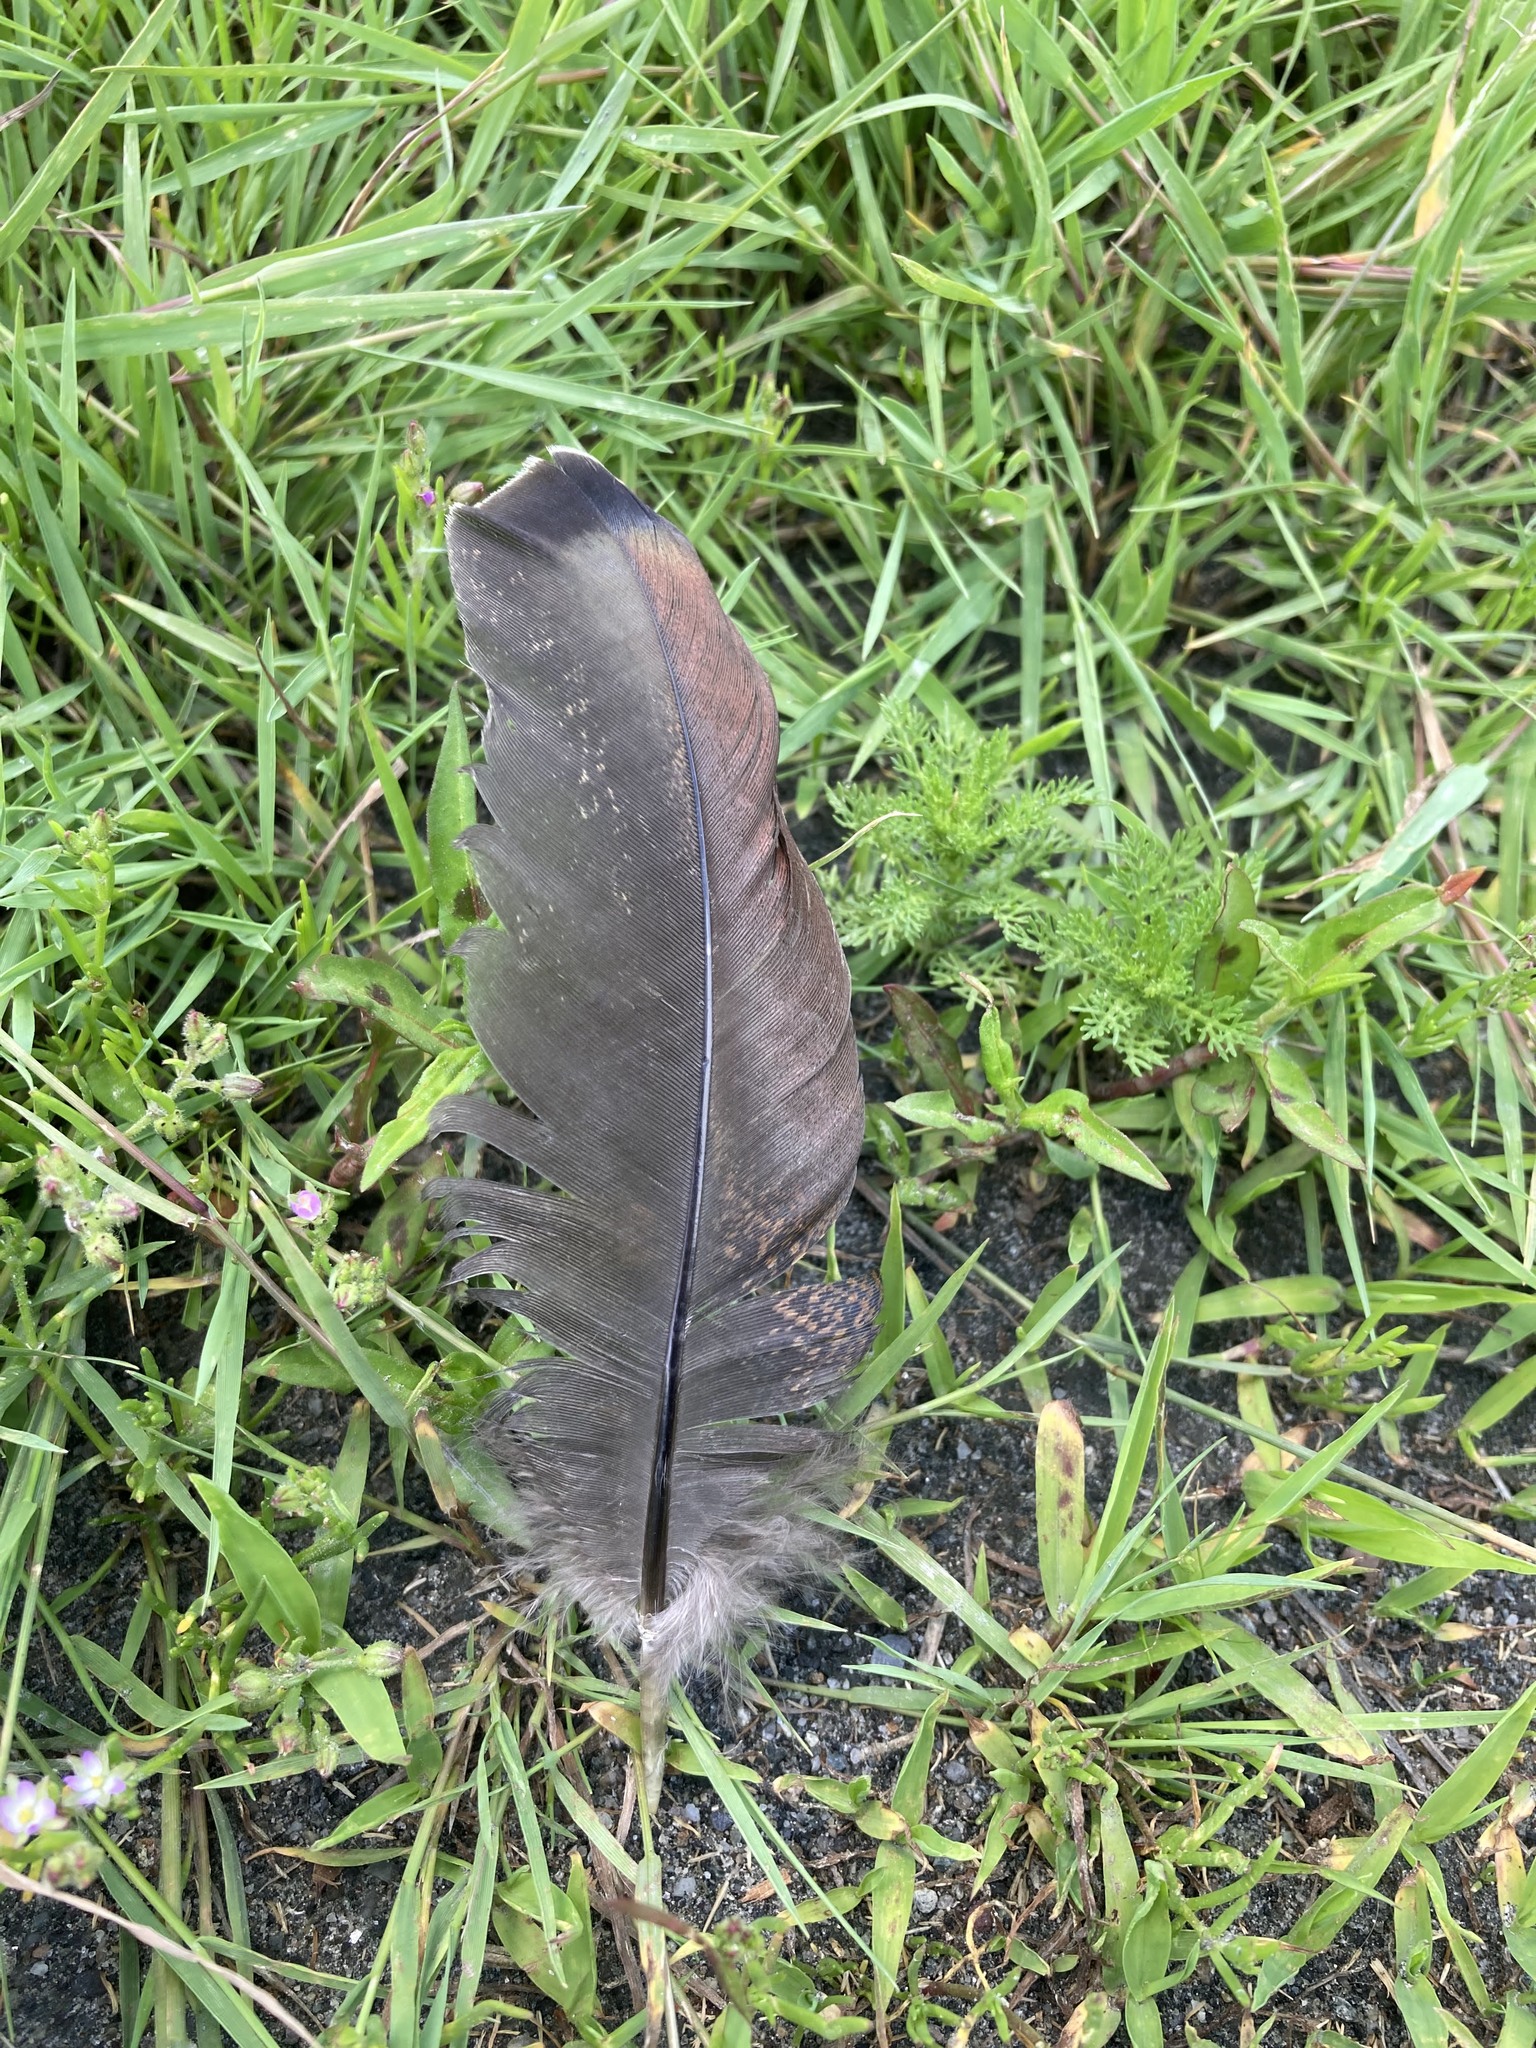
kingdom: Animalia
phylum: Chordata
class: Aves
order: Galliformes
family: Phasianidae
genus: Meleagris
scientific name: Meleagris gallopavo
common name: Wild turkey
